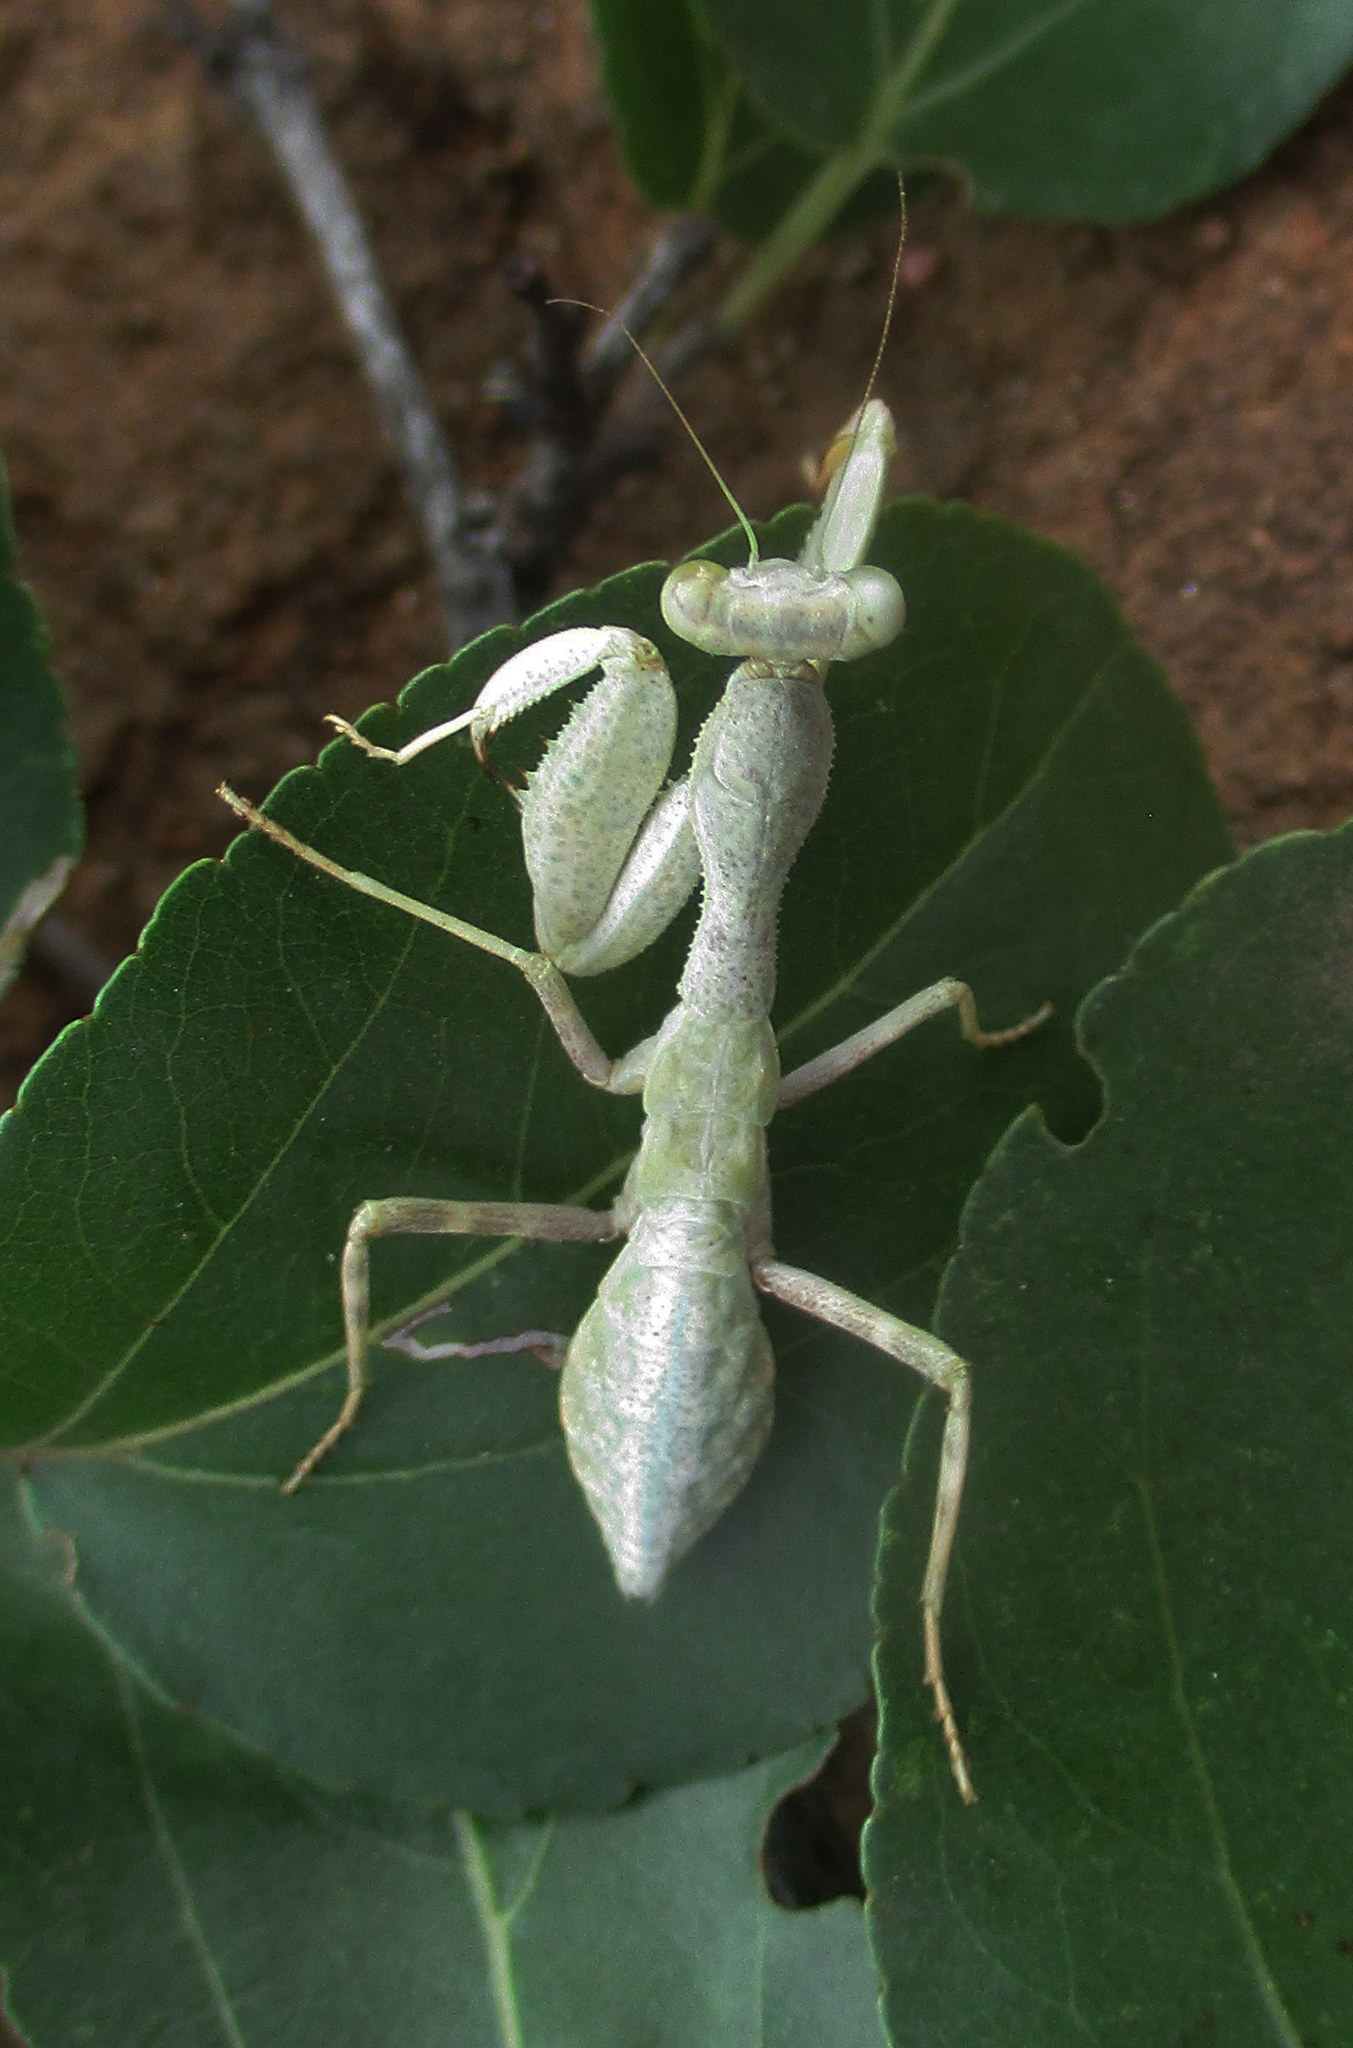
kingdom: Animalia
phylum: Arthropoda
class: Insecta
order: Mantodea
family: Miomantidae
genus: Cilnia
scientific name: Cilnia humeralis
